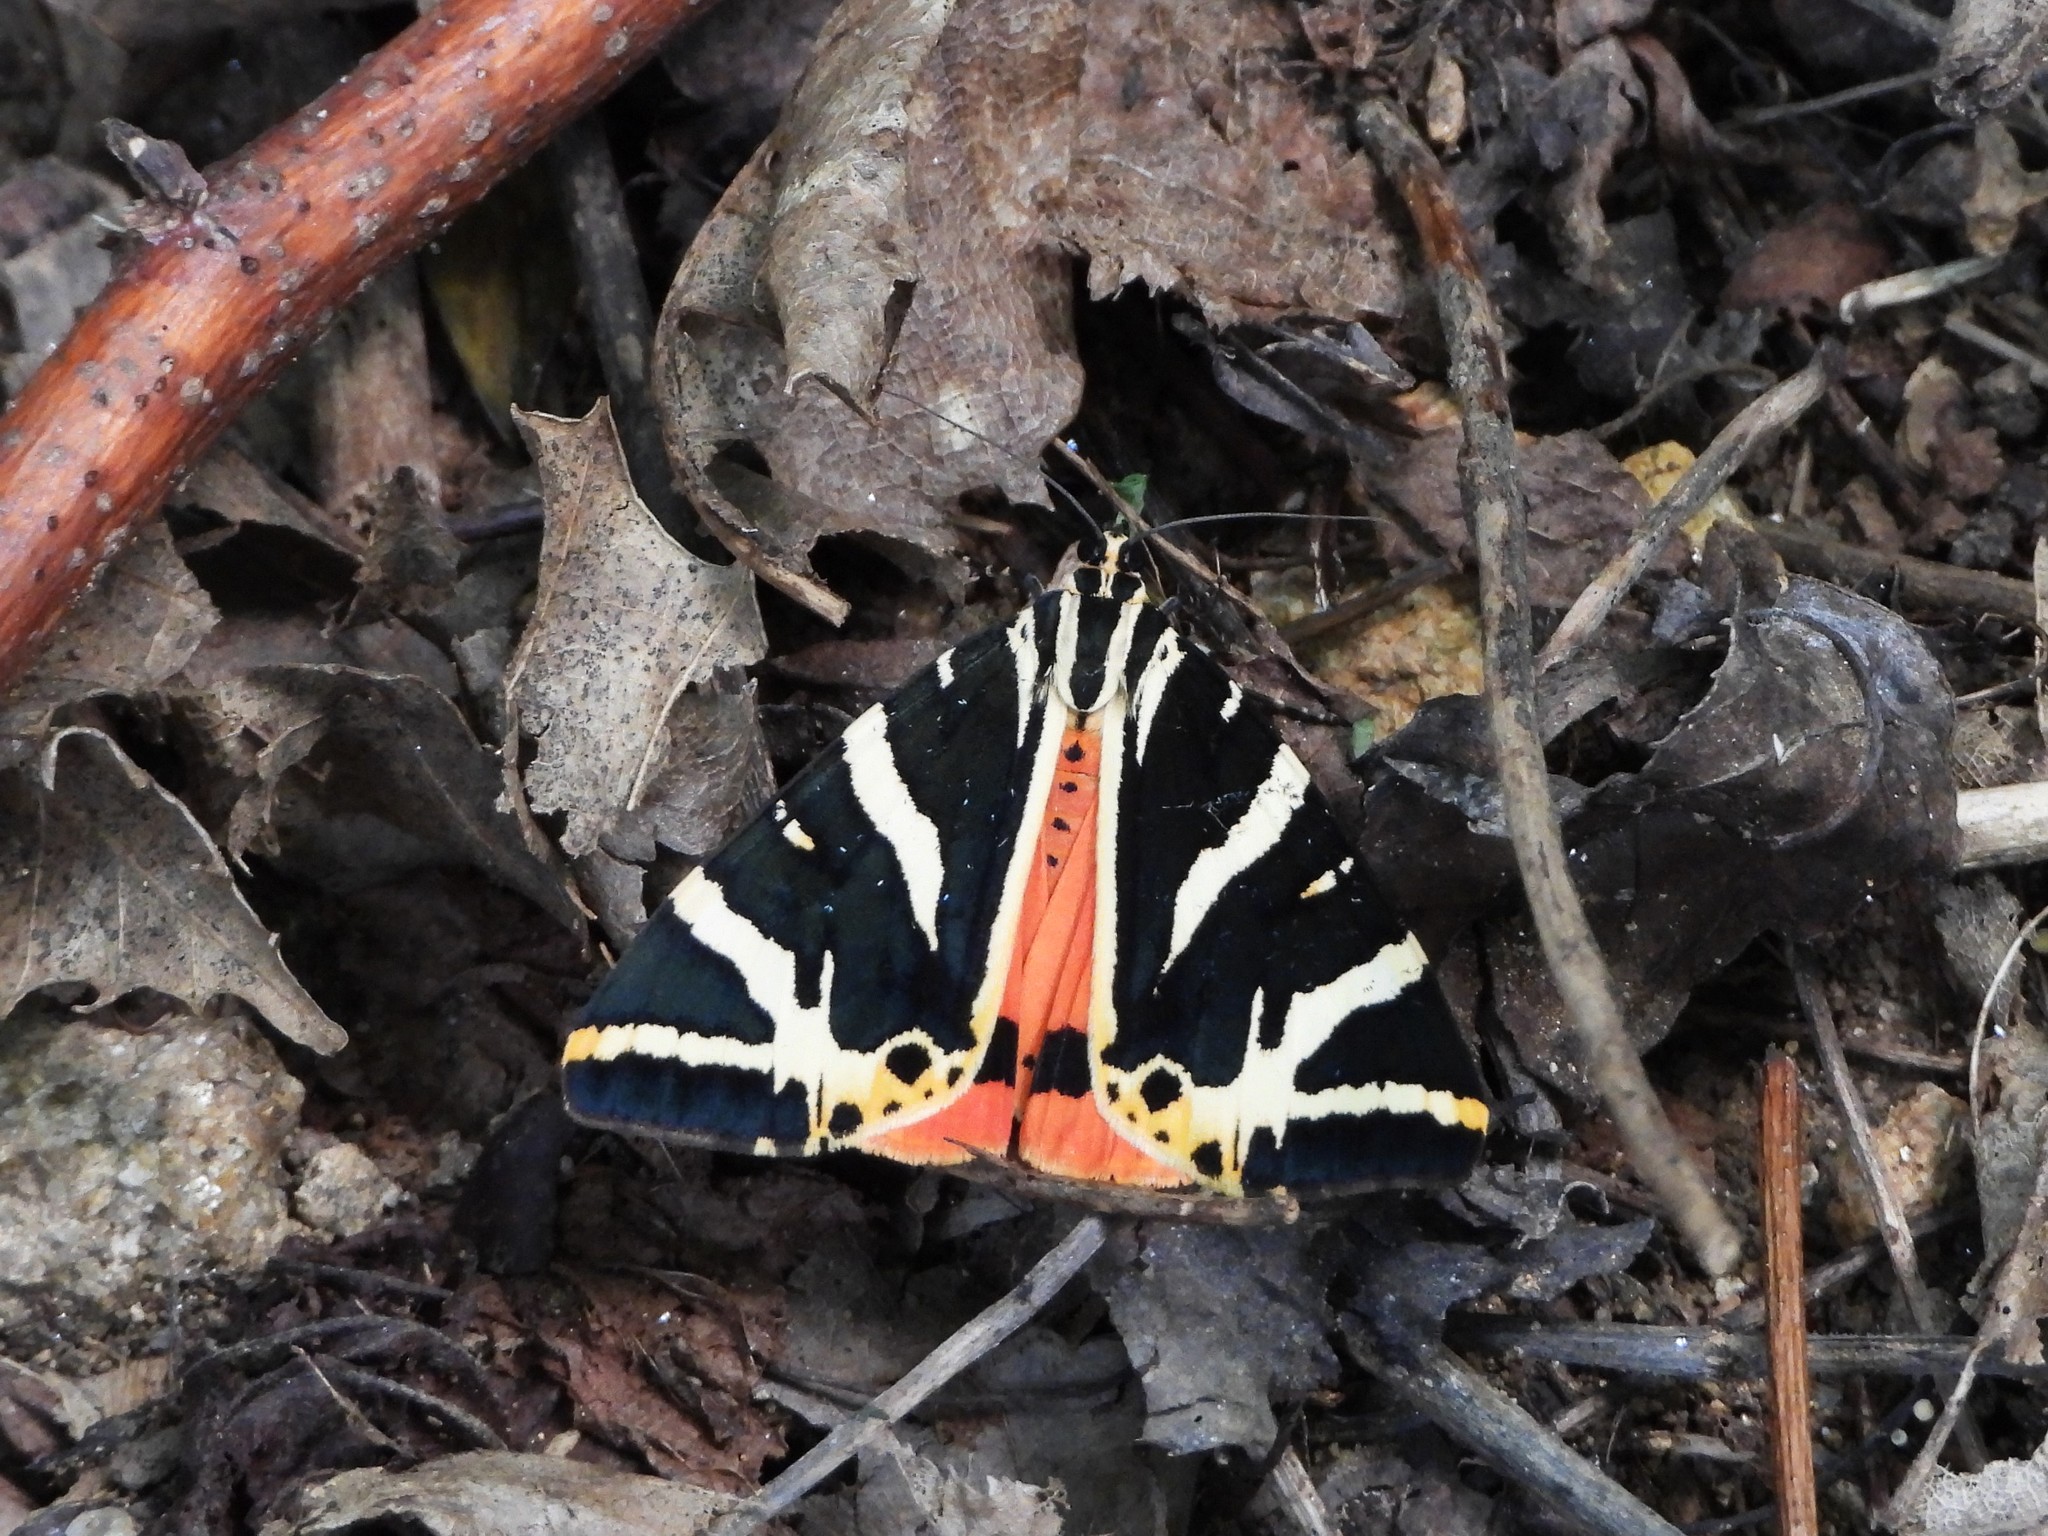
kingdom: Animalia
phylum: Arthropoda
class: Insecta
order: Lepidoptera
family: Erebidae
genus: Euplagia
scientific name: Euplagia quadripunctaria
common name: Jersey tiger
